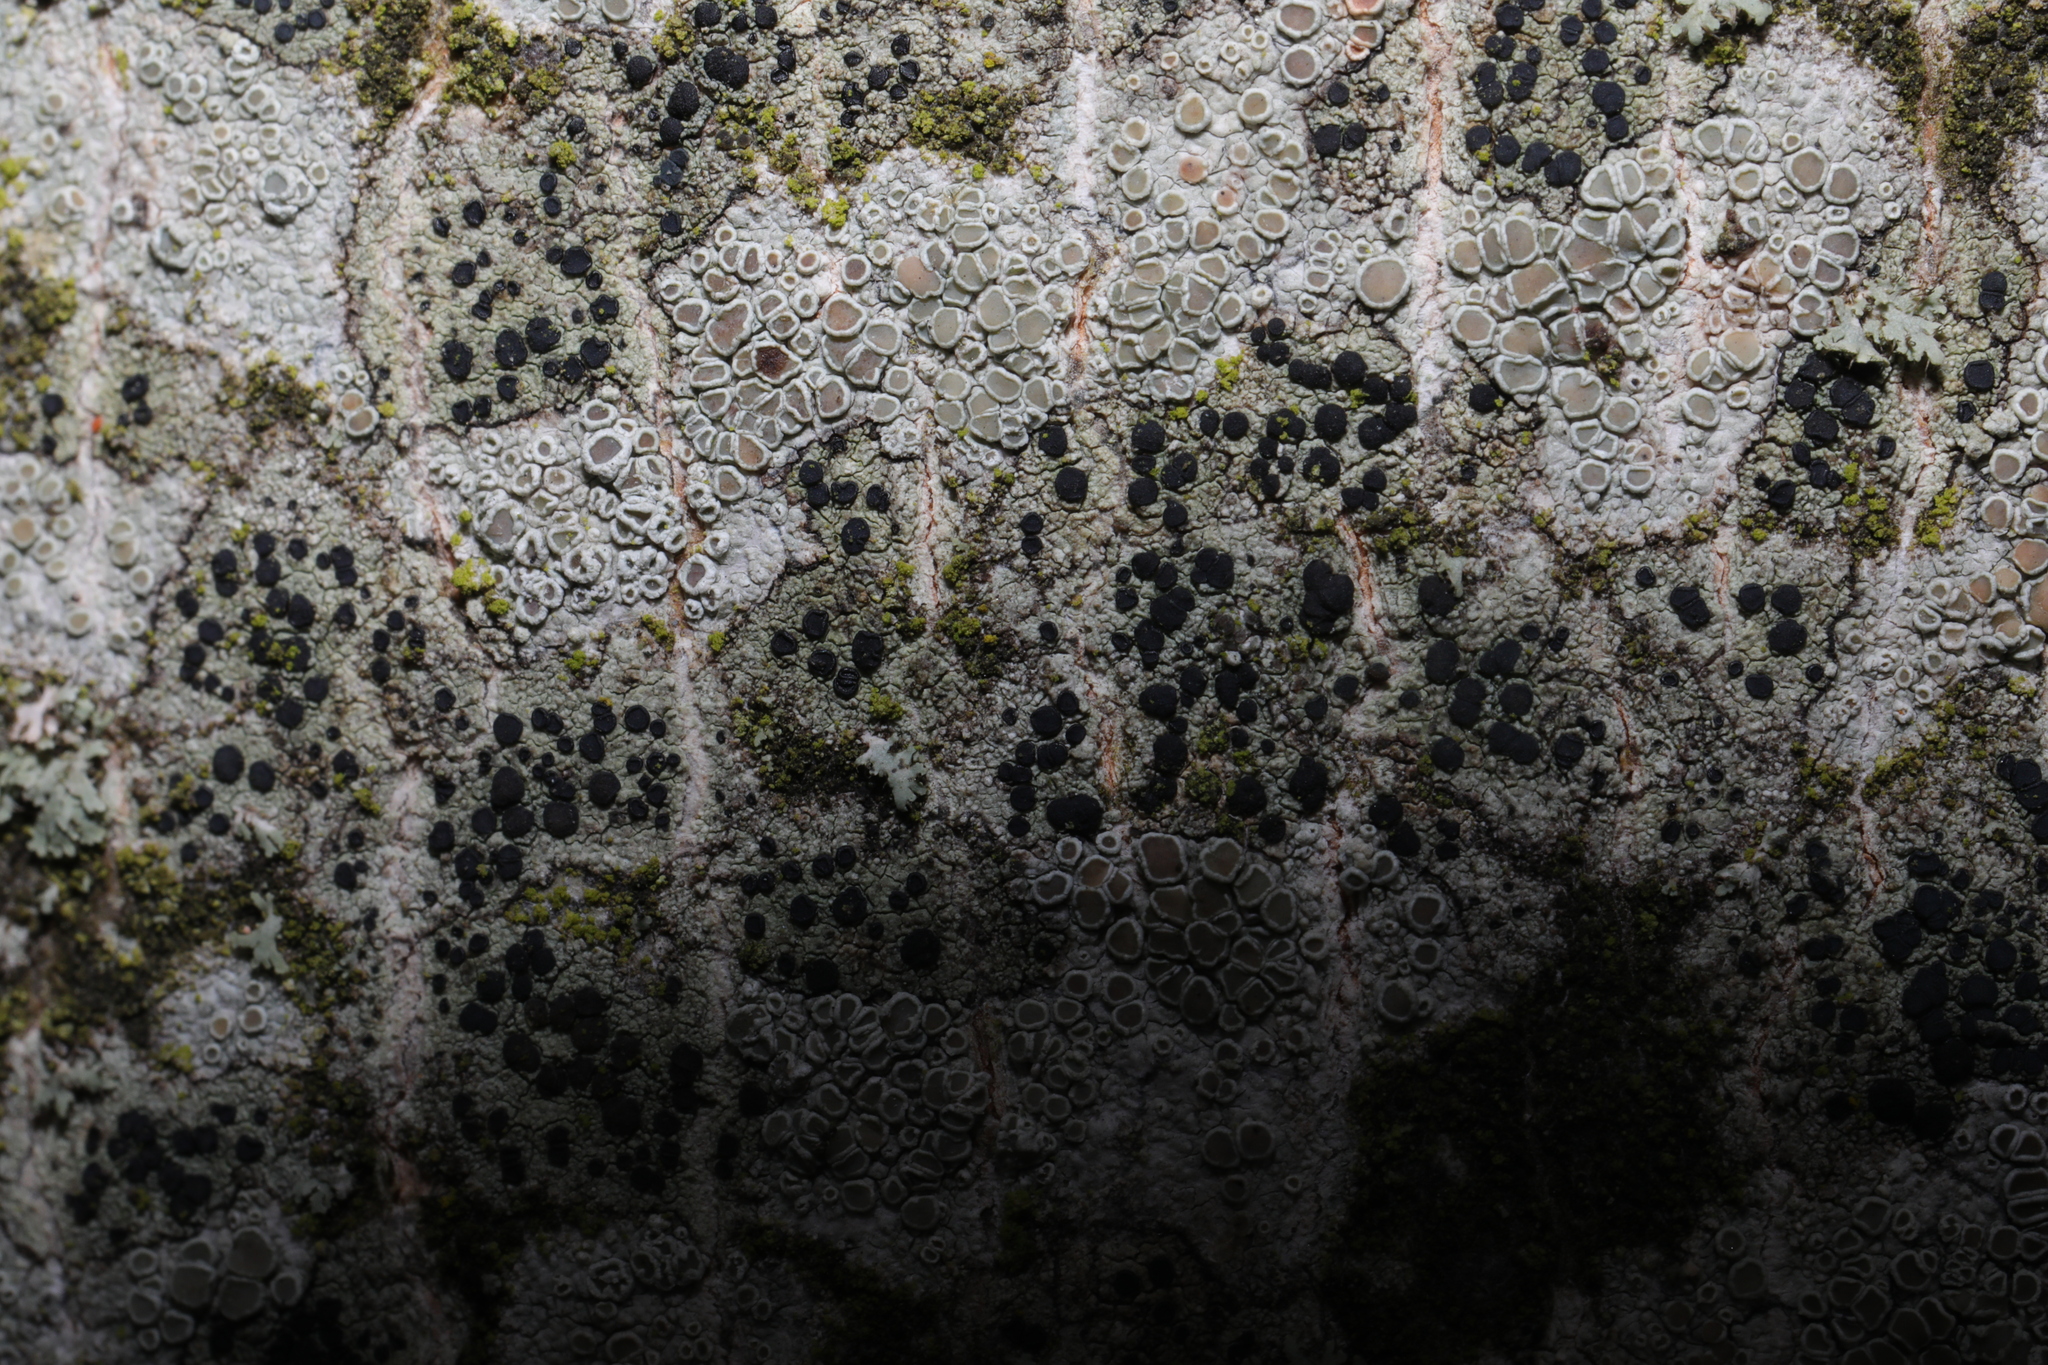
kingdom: Fungi
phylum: Ascomycota
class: Lecanoromycetes
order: Lecanorales
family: Lecanoraceae
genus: Lecidella
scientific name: Lecidella elaeochroma
